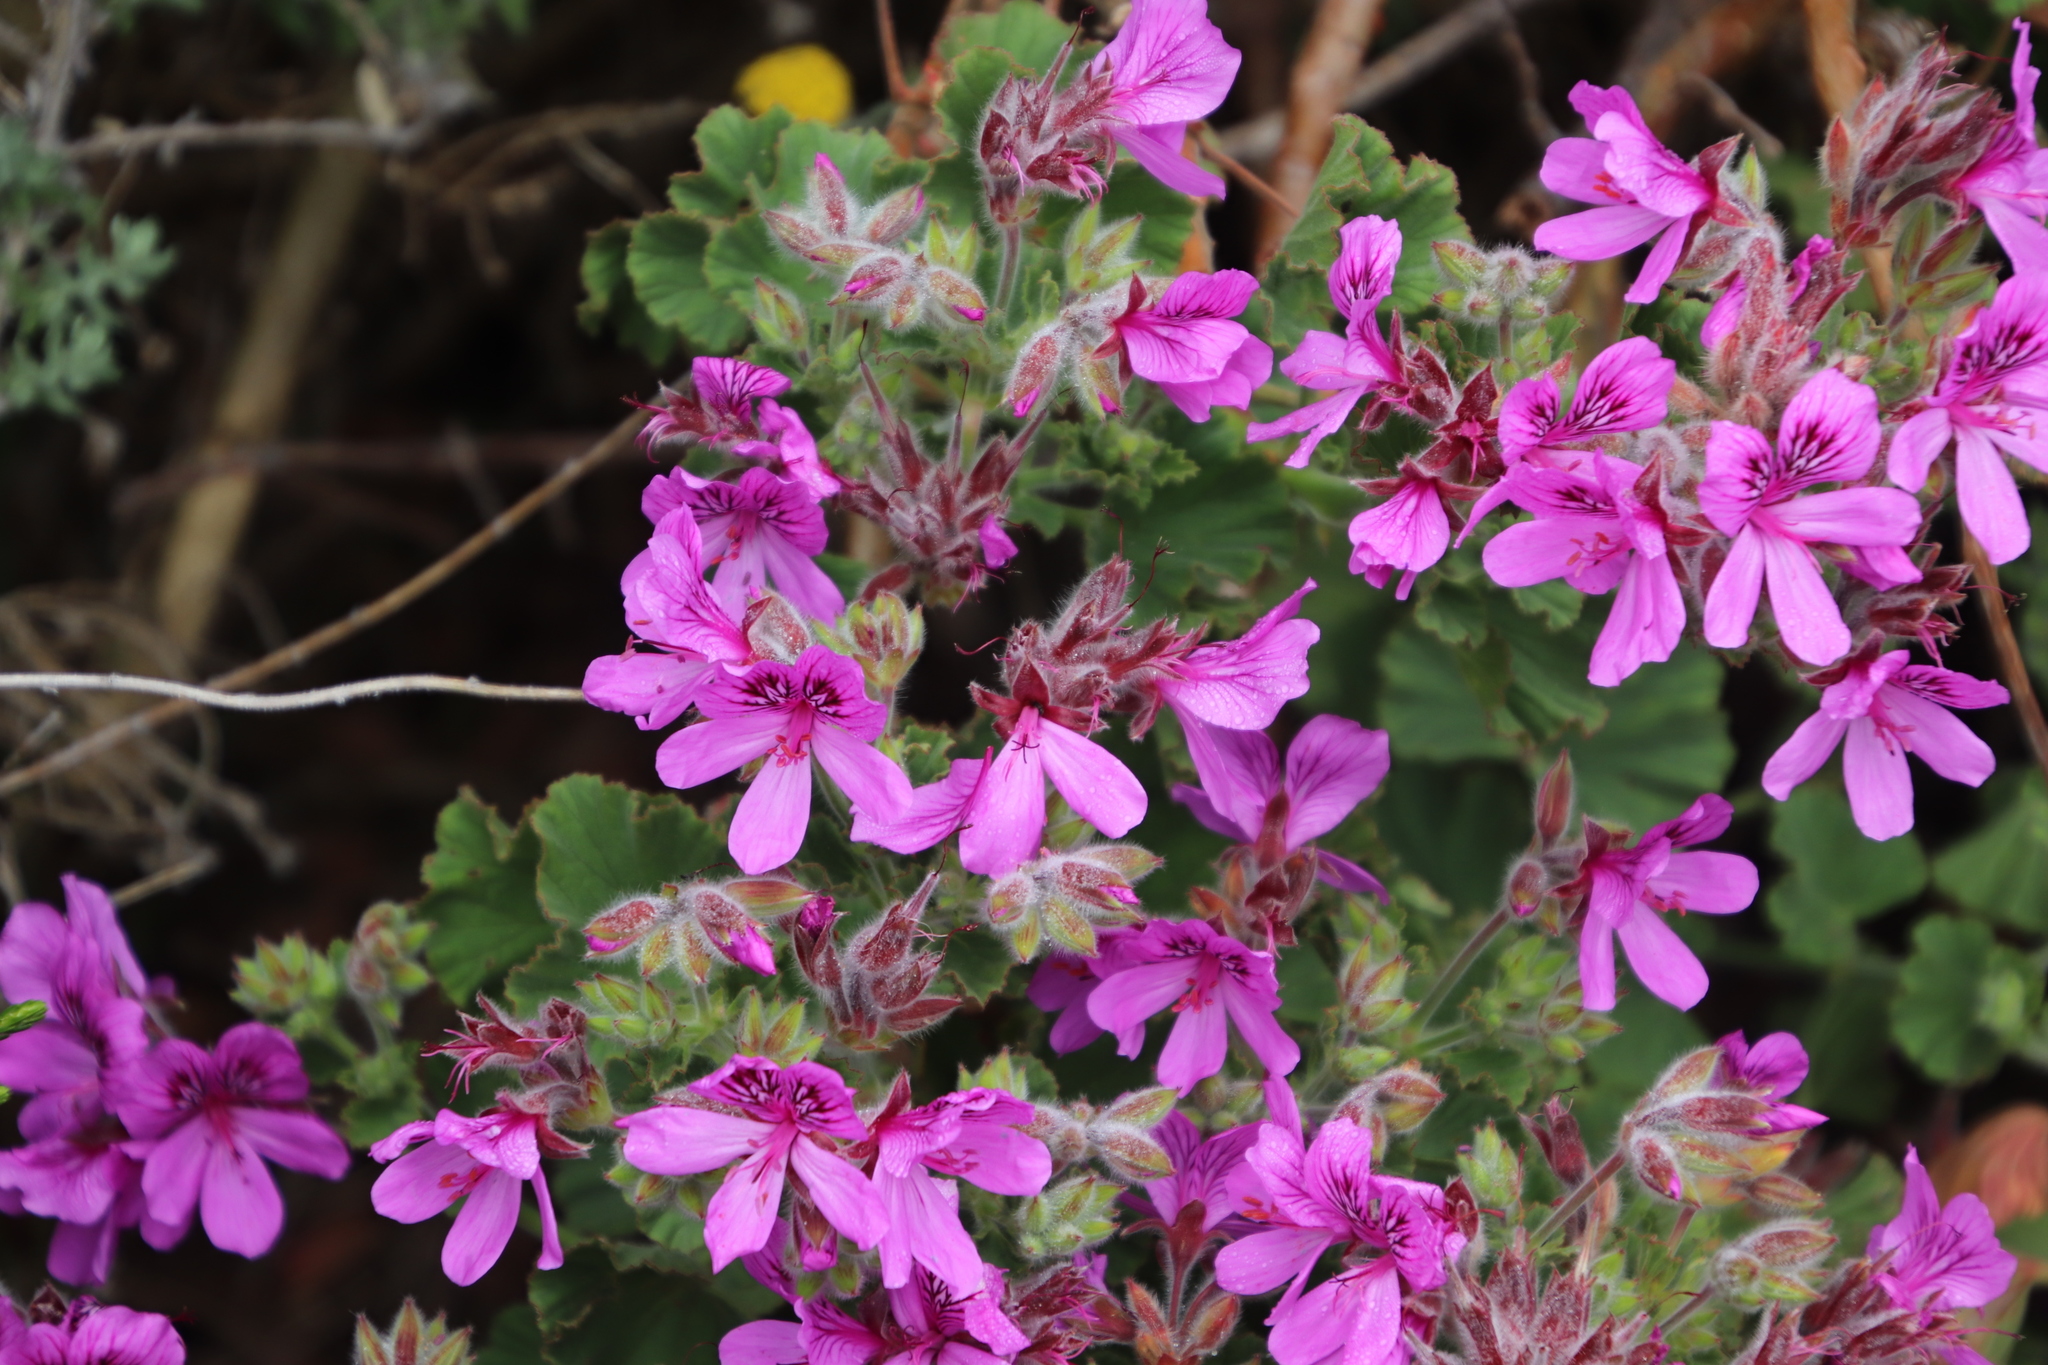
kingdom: Plantae
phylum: Tracheophyta
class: Magnoliopsida
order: Geraniales
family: Geraniaceae
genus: Pelargonium
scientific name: Pelargonium cucullatum
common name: Tree pelargonium
